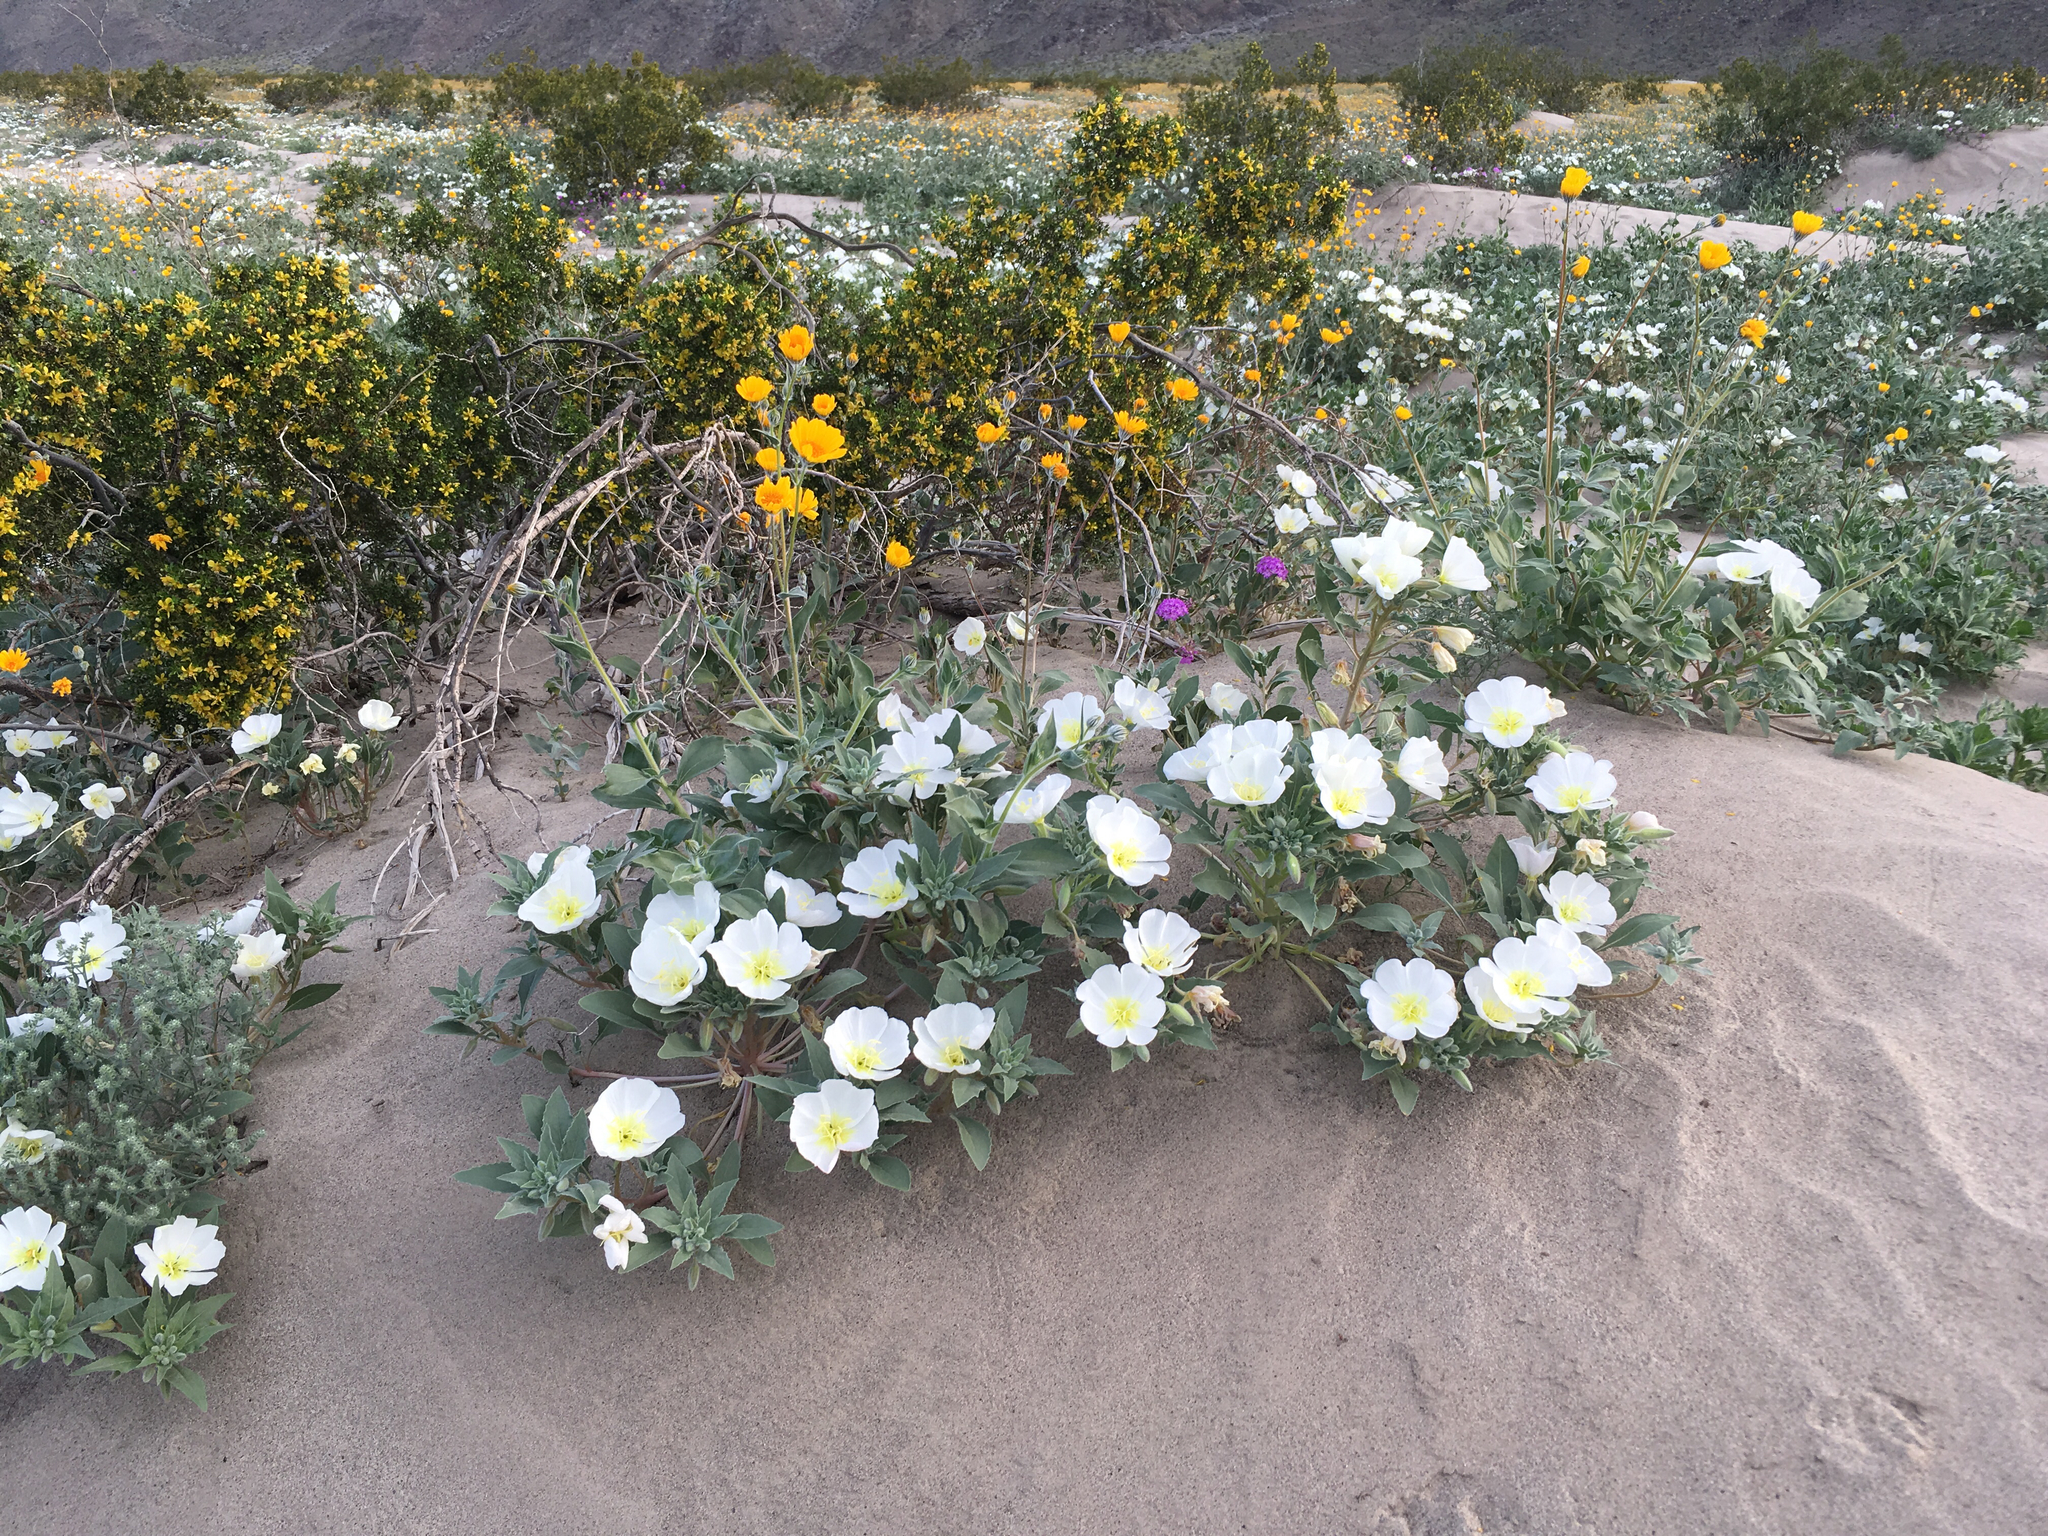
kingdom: Plantae
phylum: Tracheophyta
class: Magnoliopsida
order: Myrtales
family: Onagraceae
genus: Oenothera
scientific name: Oenothera deltoides
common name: Basket evening-primrose
